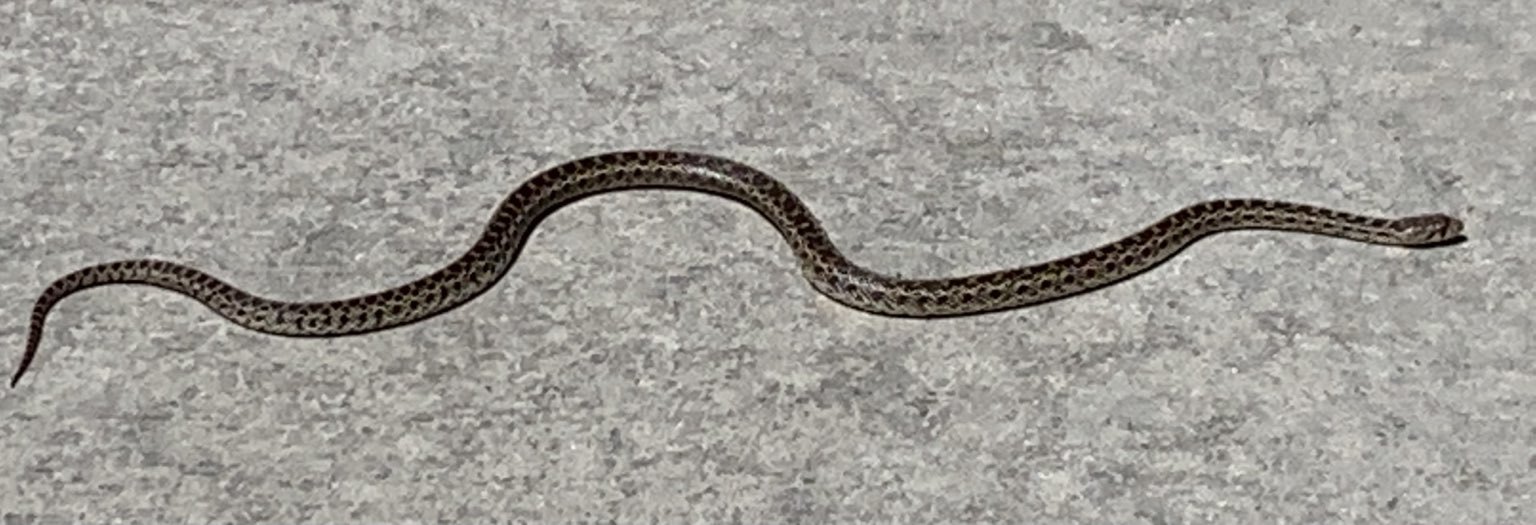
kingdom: Animalia
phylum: Chordata
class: Squamata
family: Colubridae
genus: Pituophis
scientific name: Pituophis catenifer
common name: Gopher snake
